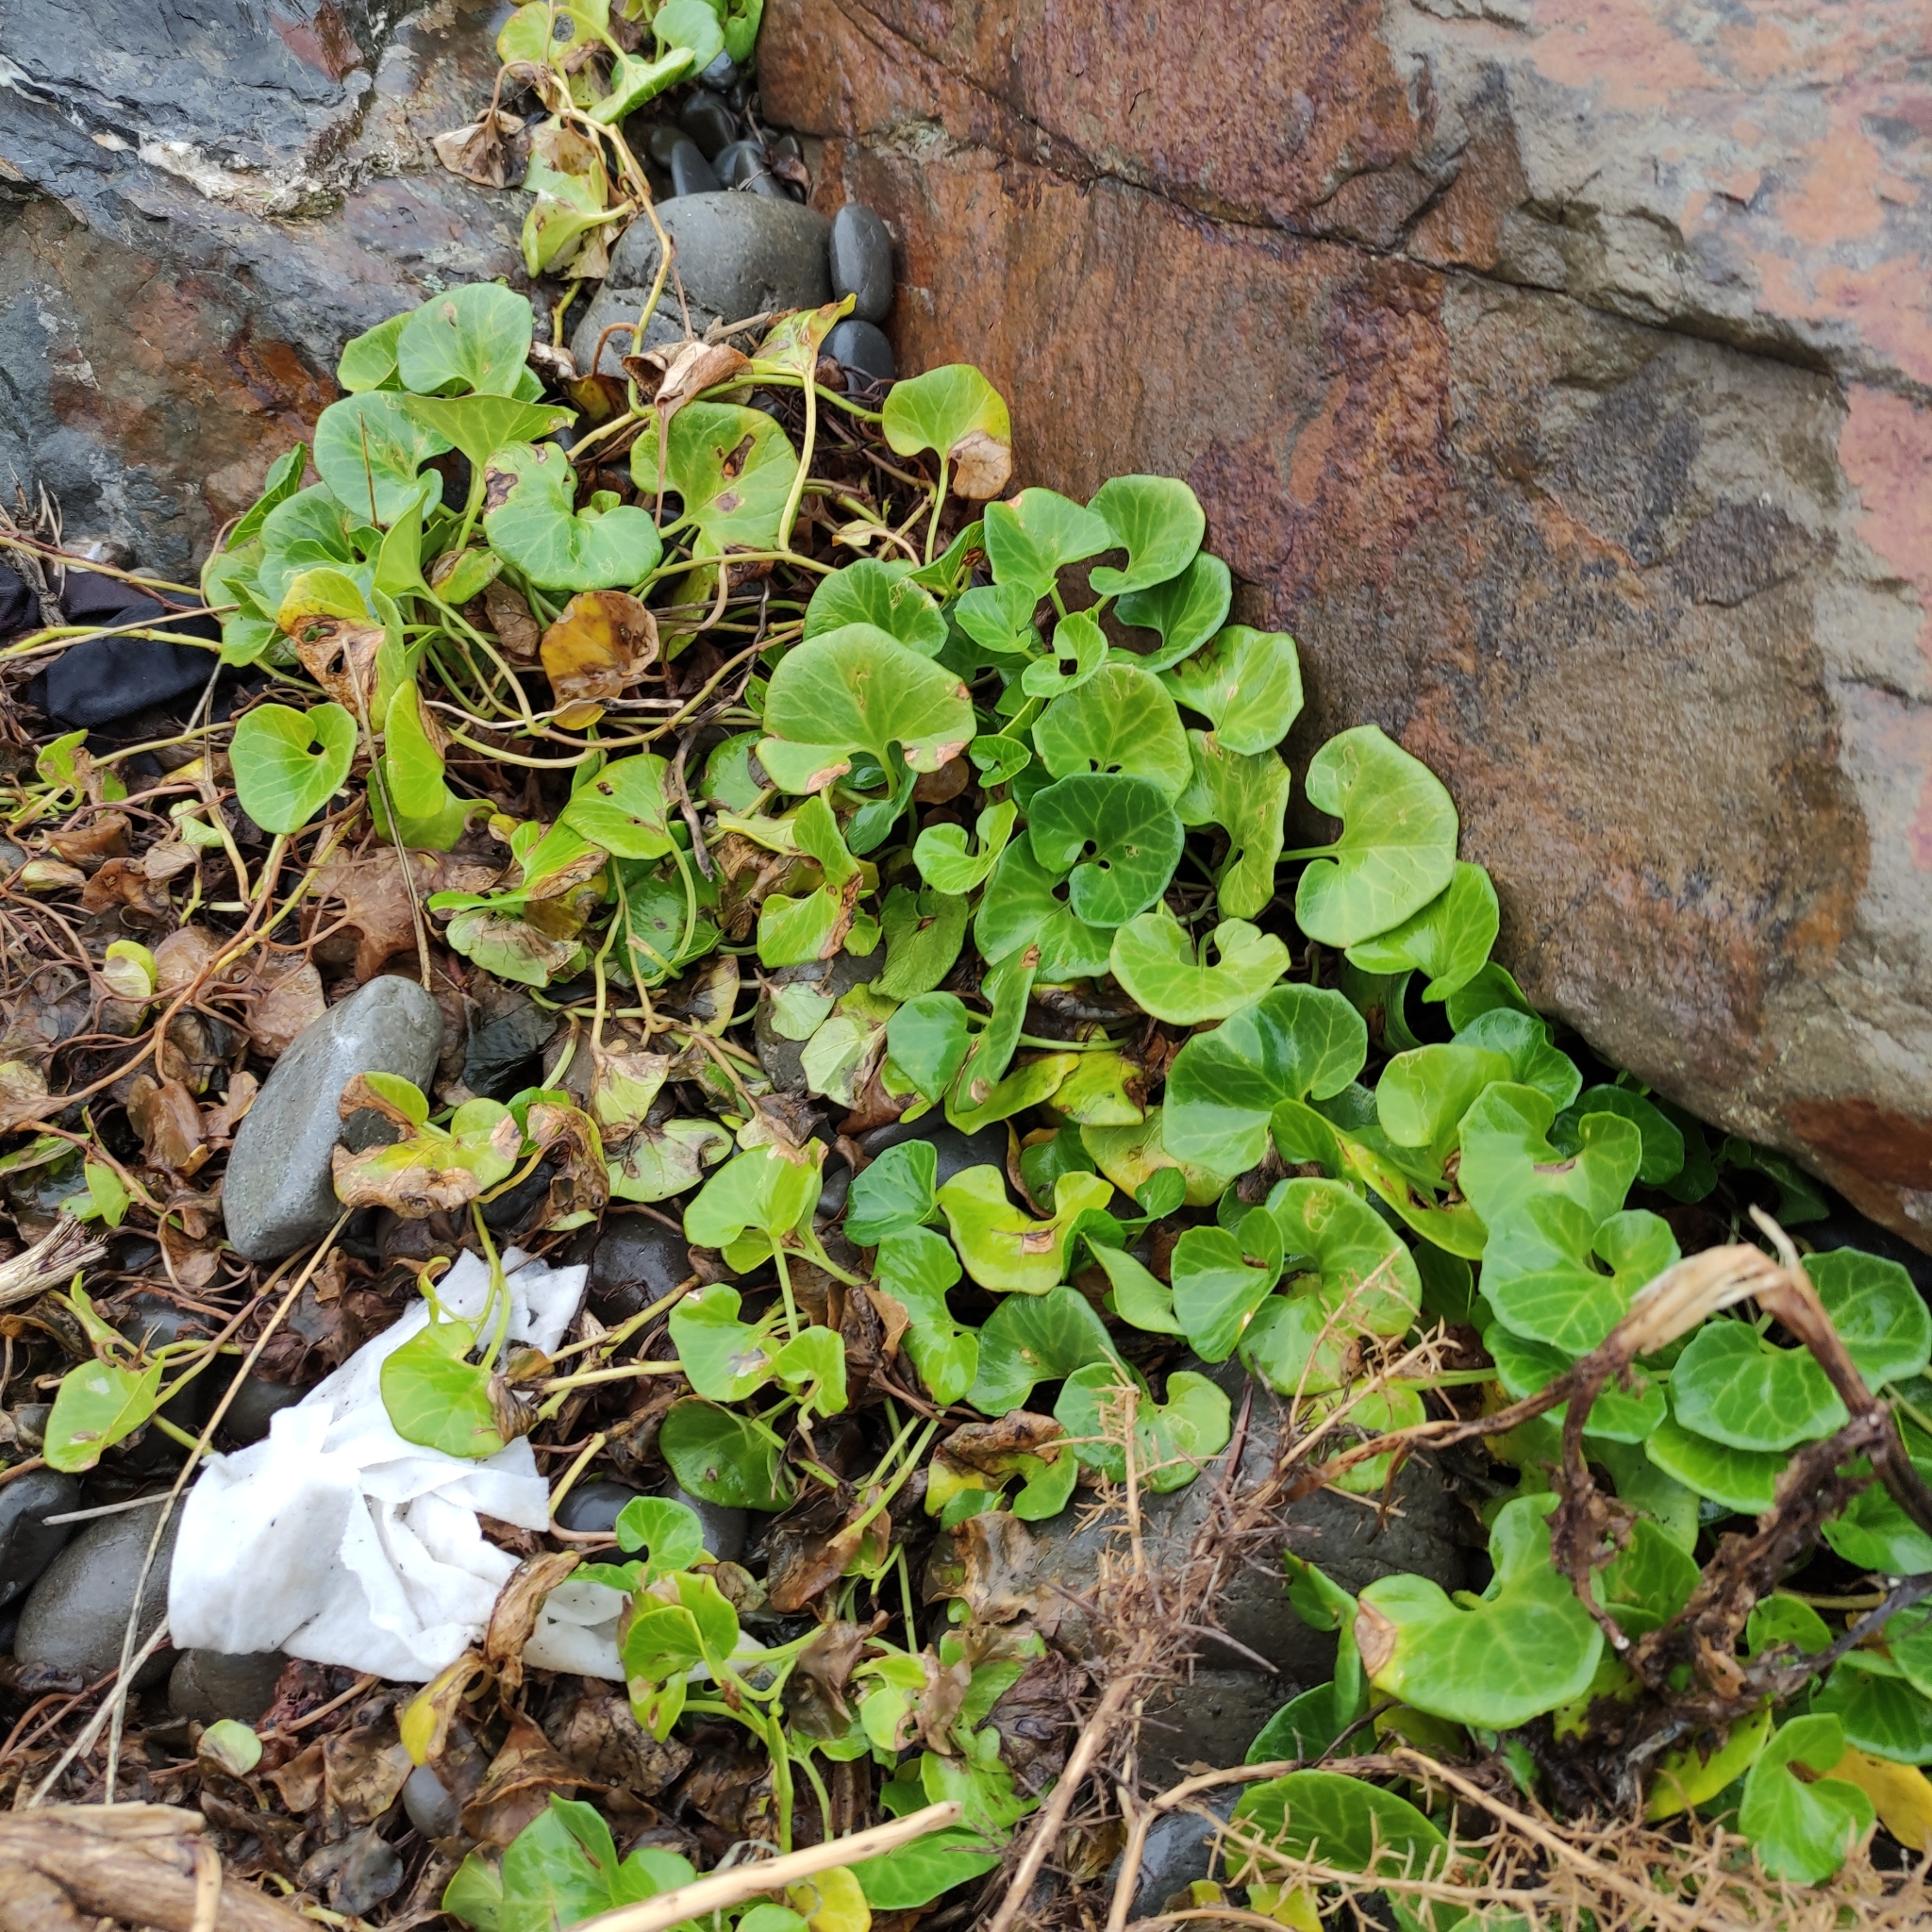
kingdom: Plantae
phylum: Tracheophyta
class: Magnoliopsida
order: Solanales
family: Convolvulaceae
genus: Calystegia
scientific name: Calystegia soldanella
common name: Sea bindweed
